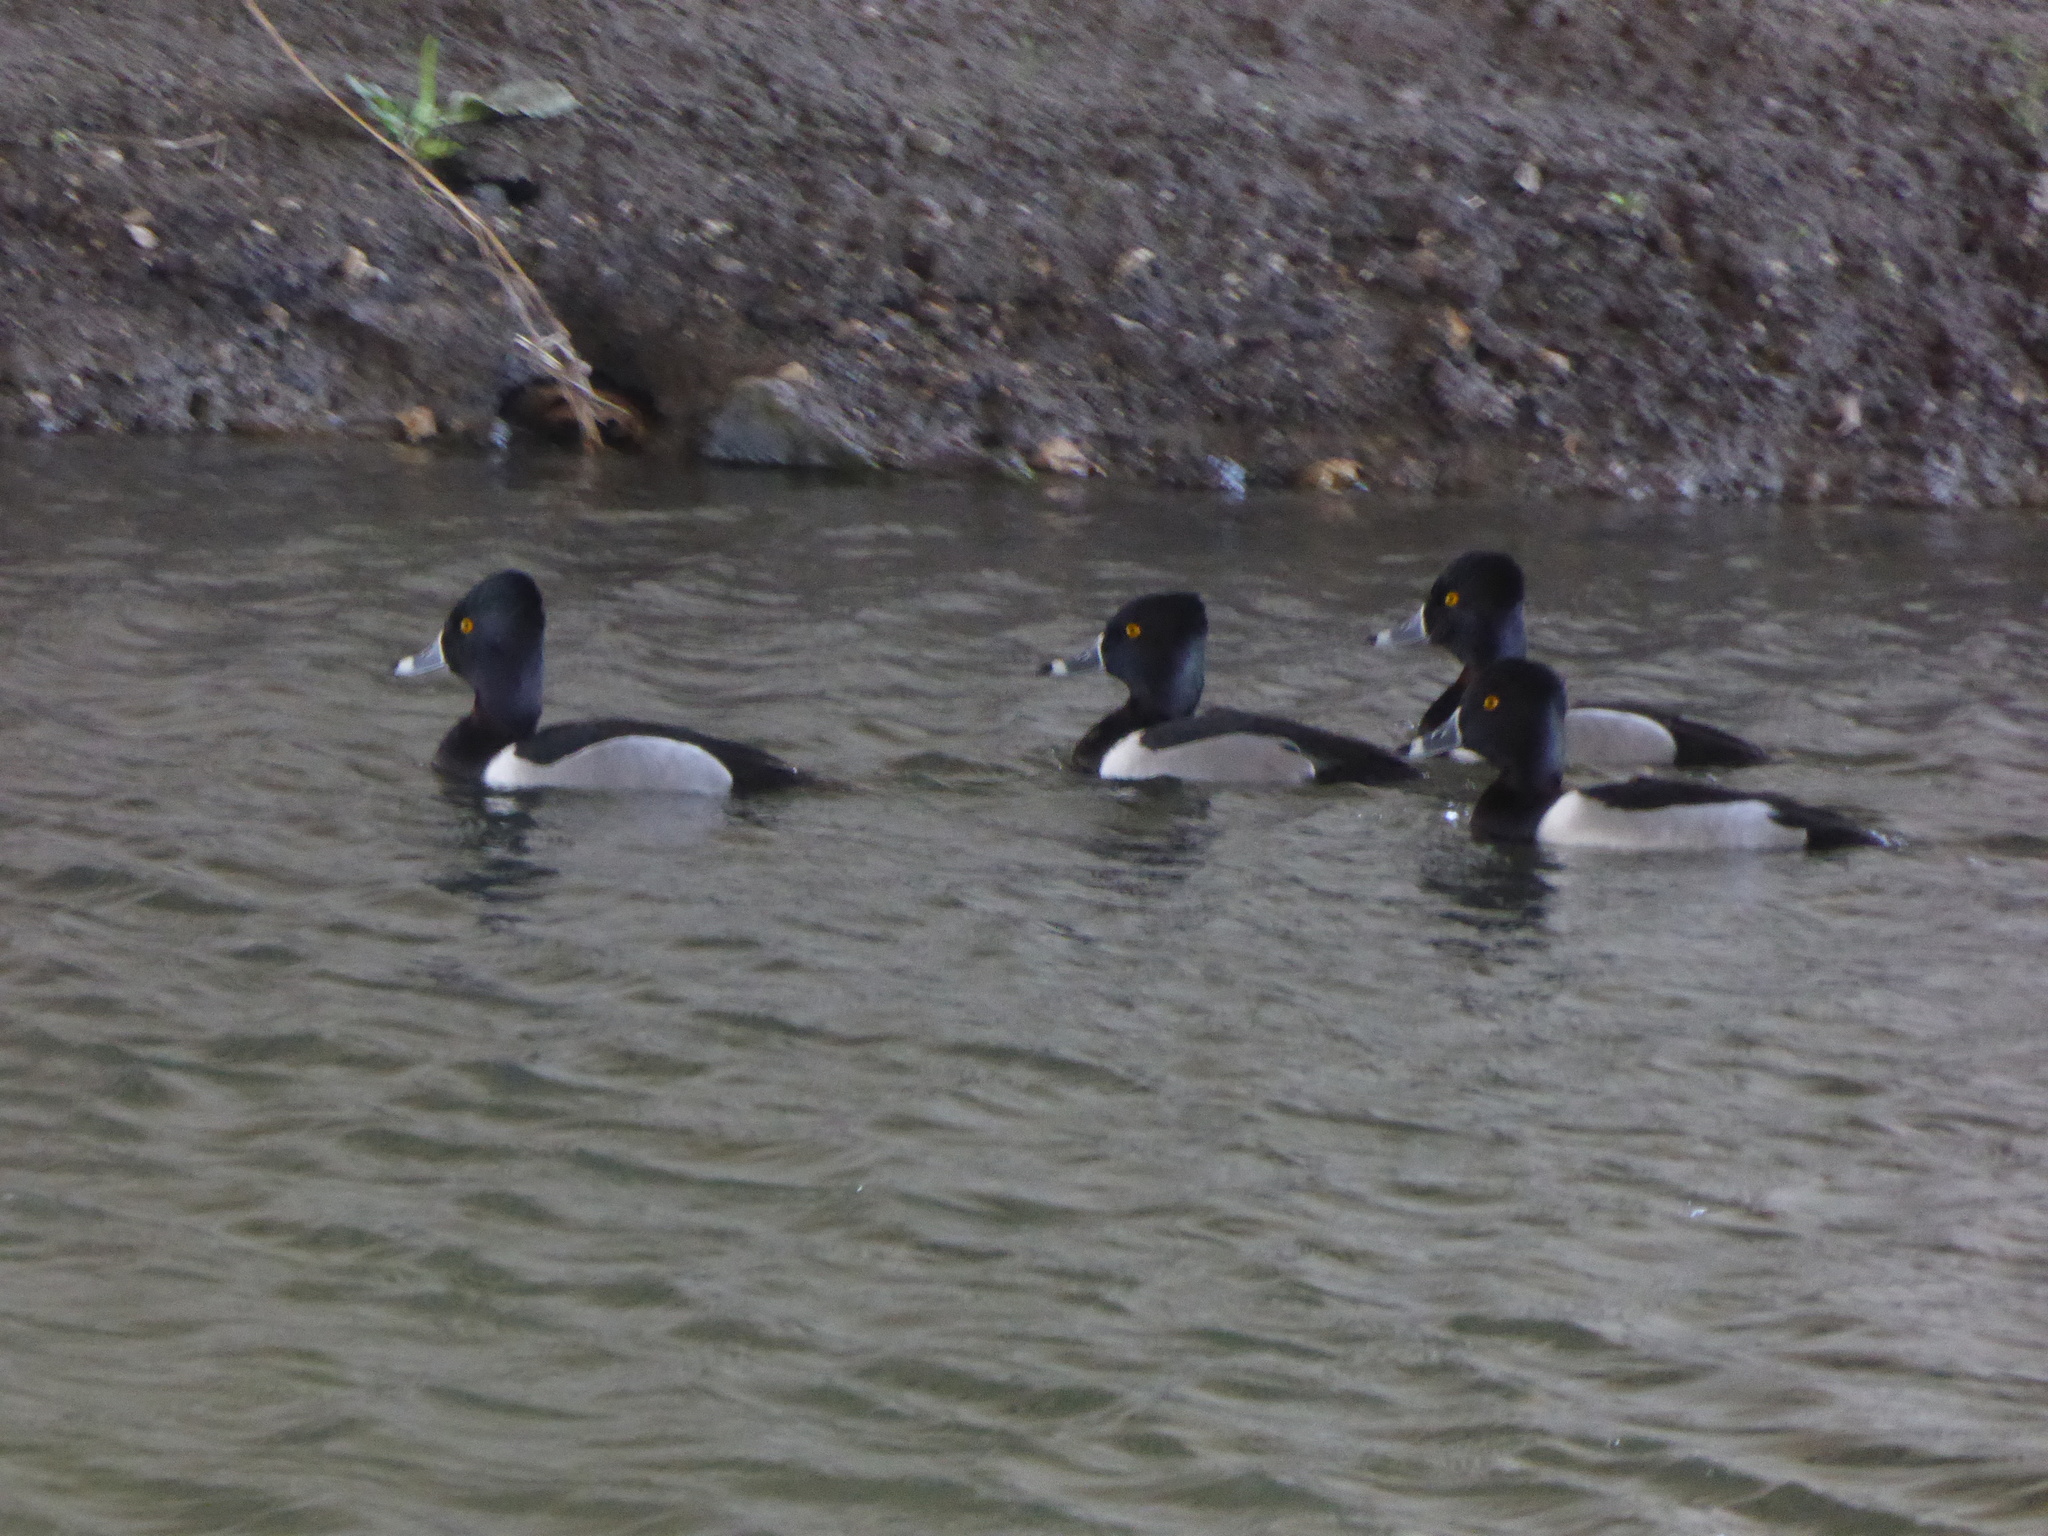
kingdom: Animalia
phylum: Chordata
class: Aves
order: Anseriformes
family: Anatidae
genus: Aythya
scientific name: Aythya collaris
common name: Ring-necked duck
